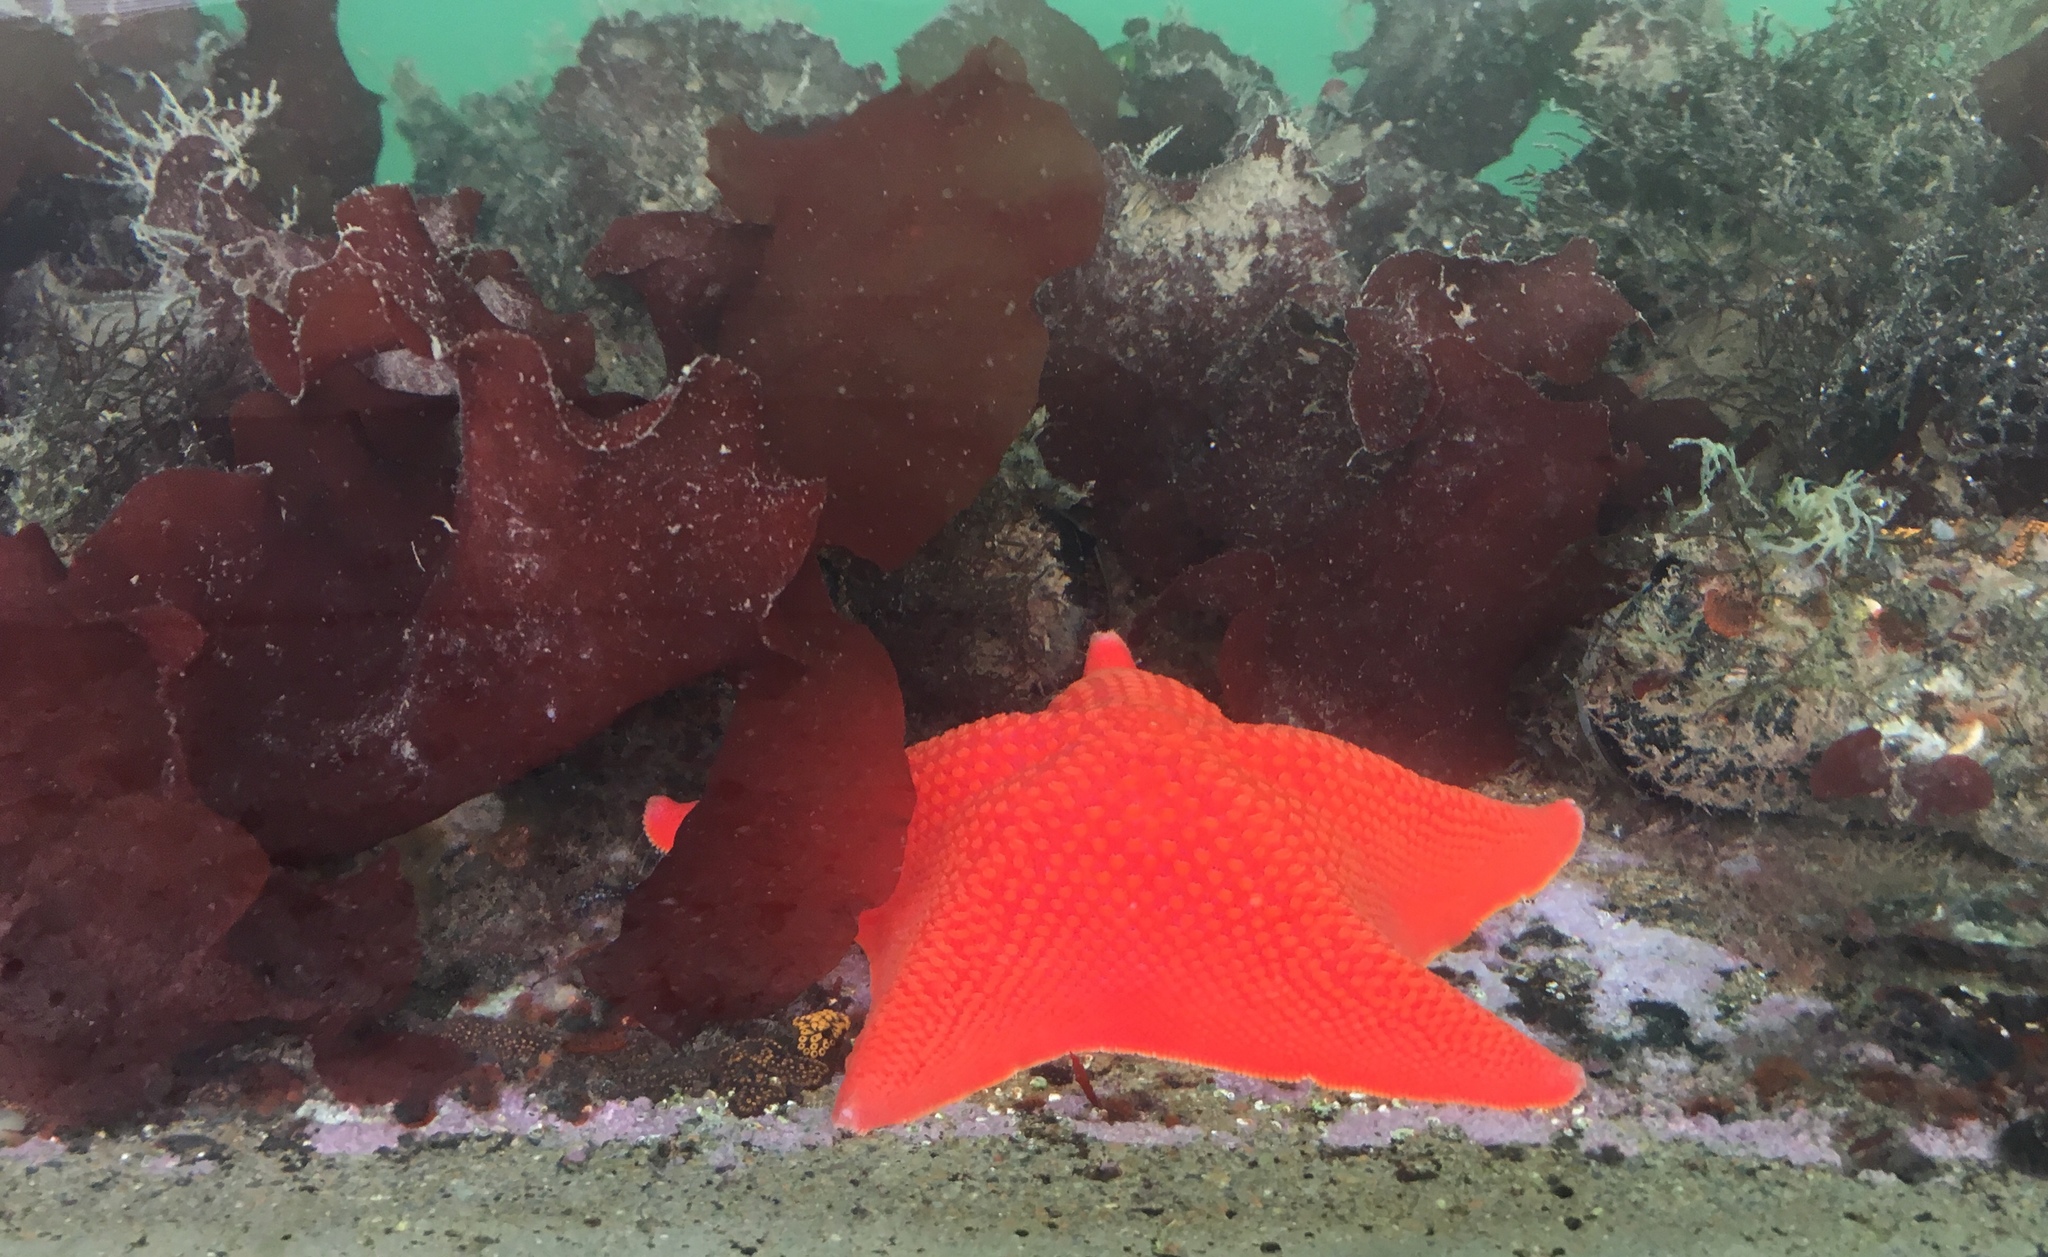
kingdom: Animalia
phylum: Echinodermata
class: Asteroidea
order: Valvatida
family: Asterinidae
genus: Patiria
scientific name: Patiria miniata
